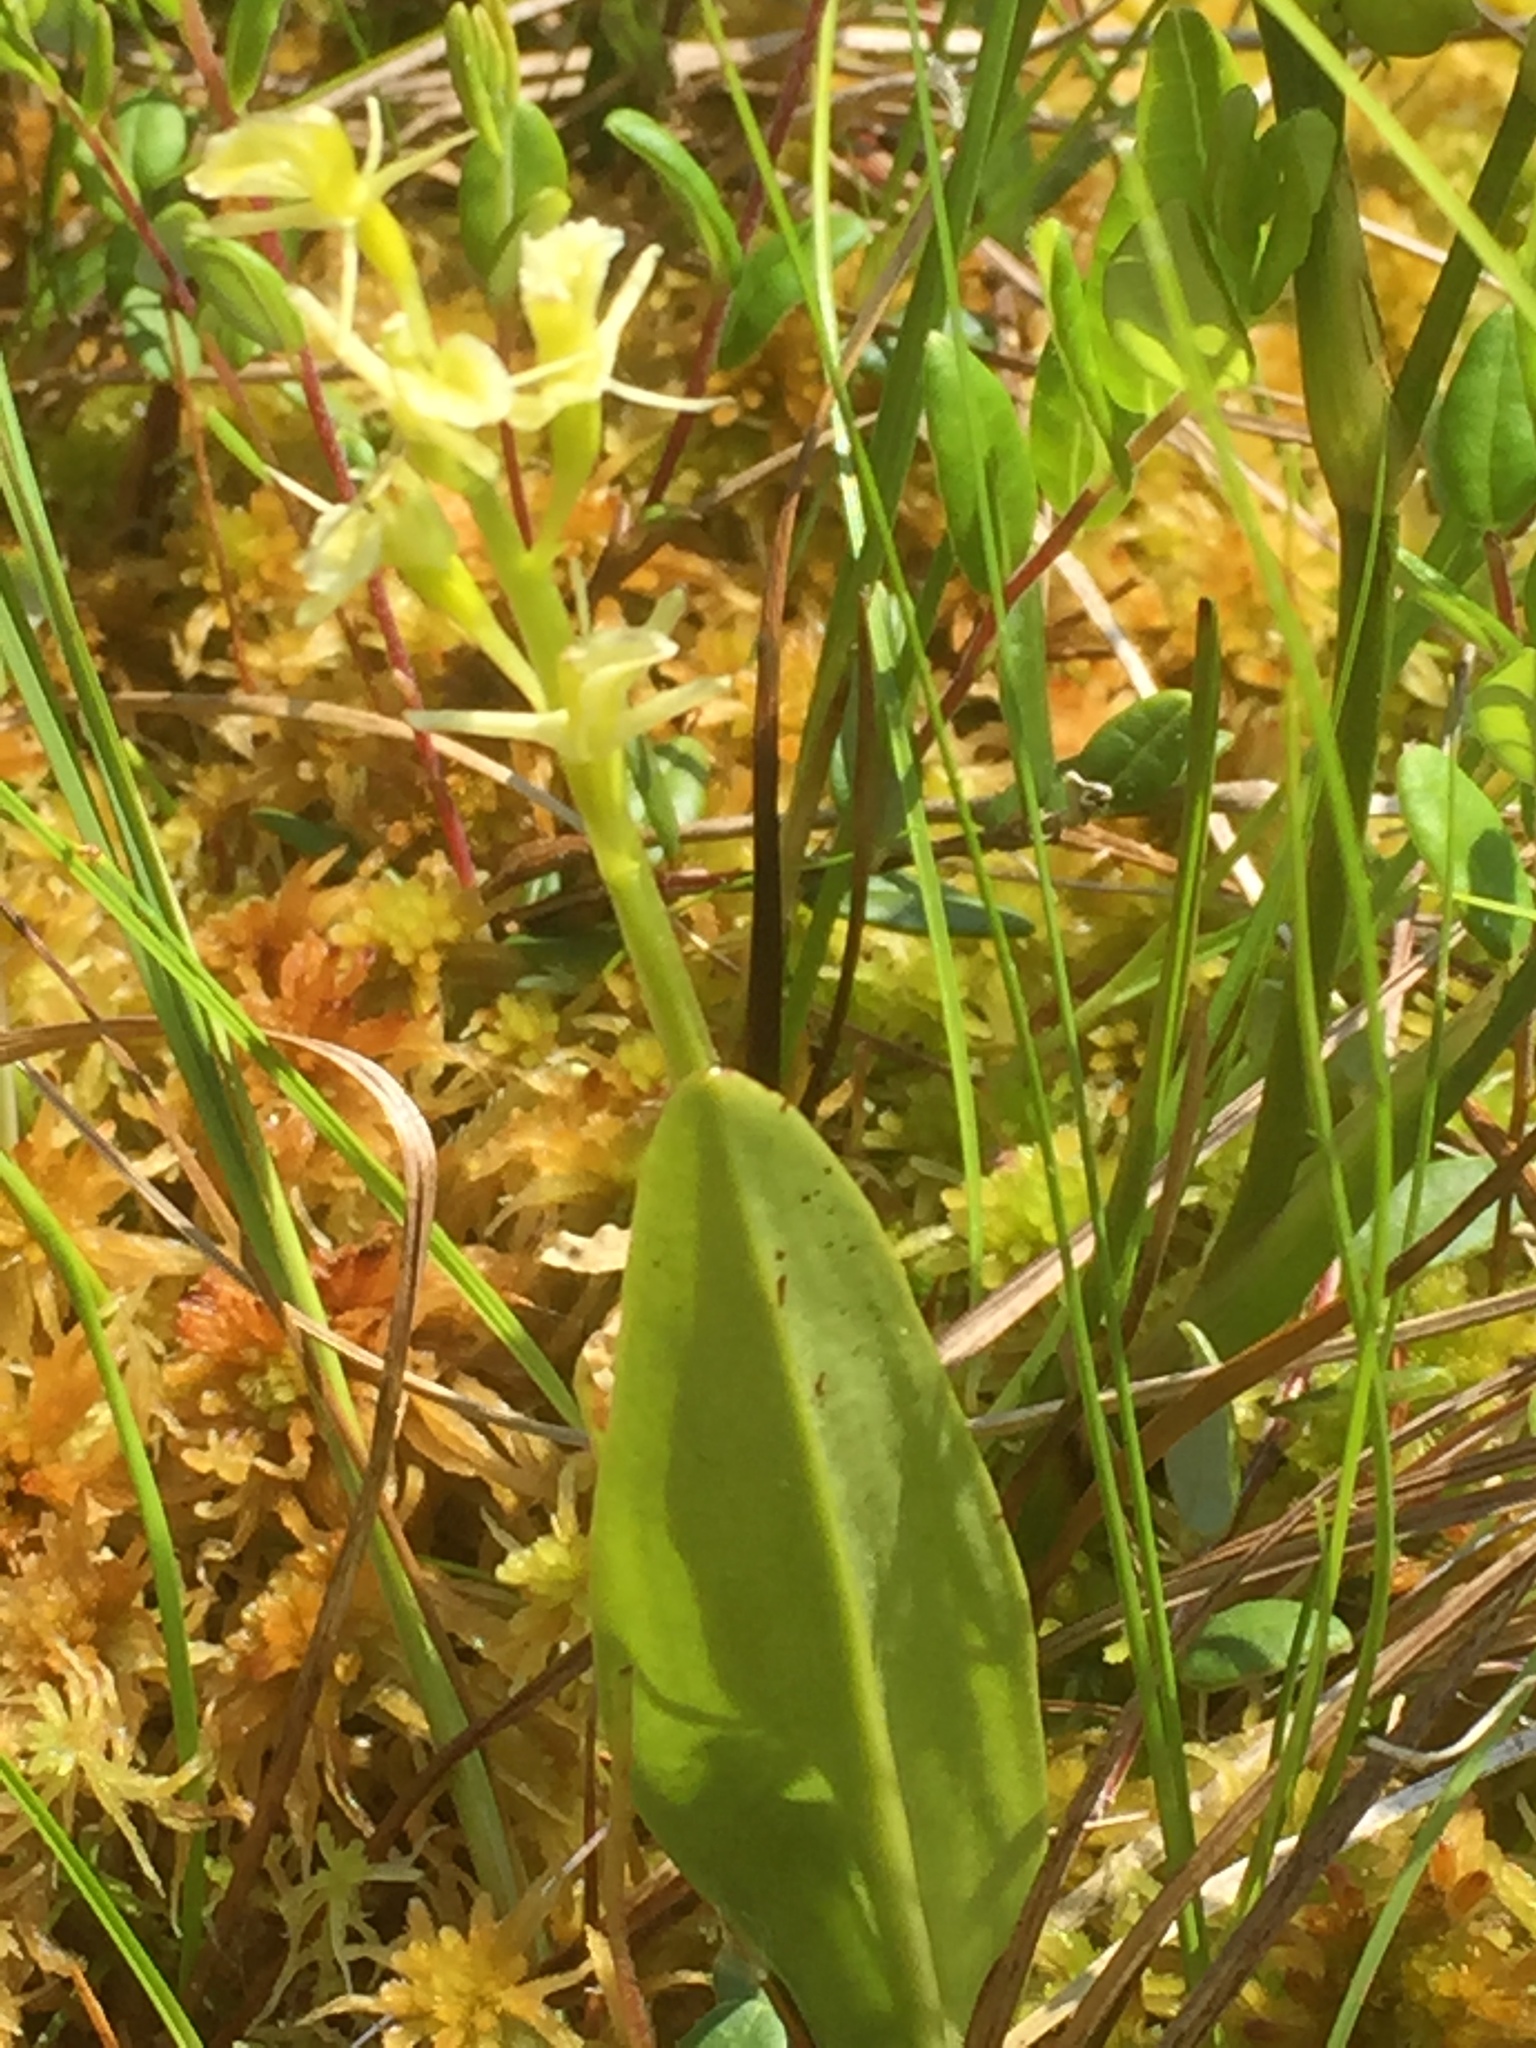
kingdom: Animalia
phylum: Arthropoda
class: Insecta
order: Coleoptera
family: Curculionidae
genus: Liparis
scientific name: Liparis loeselii
